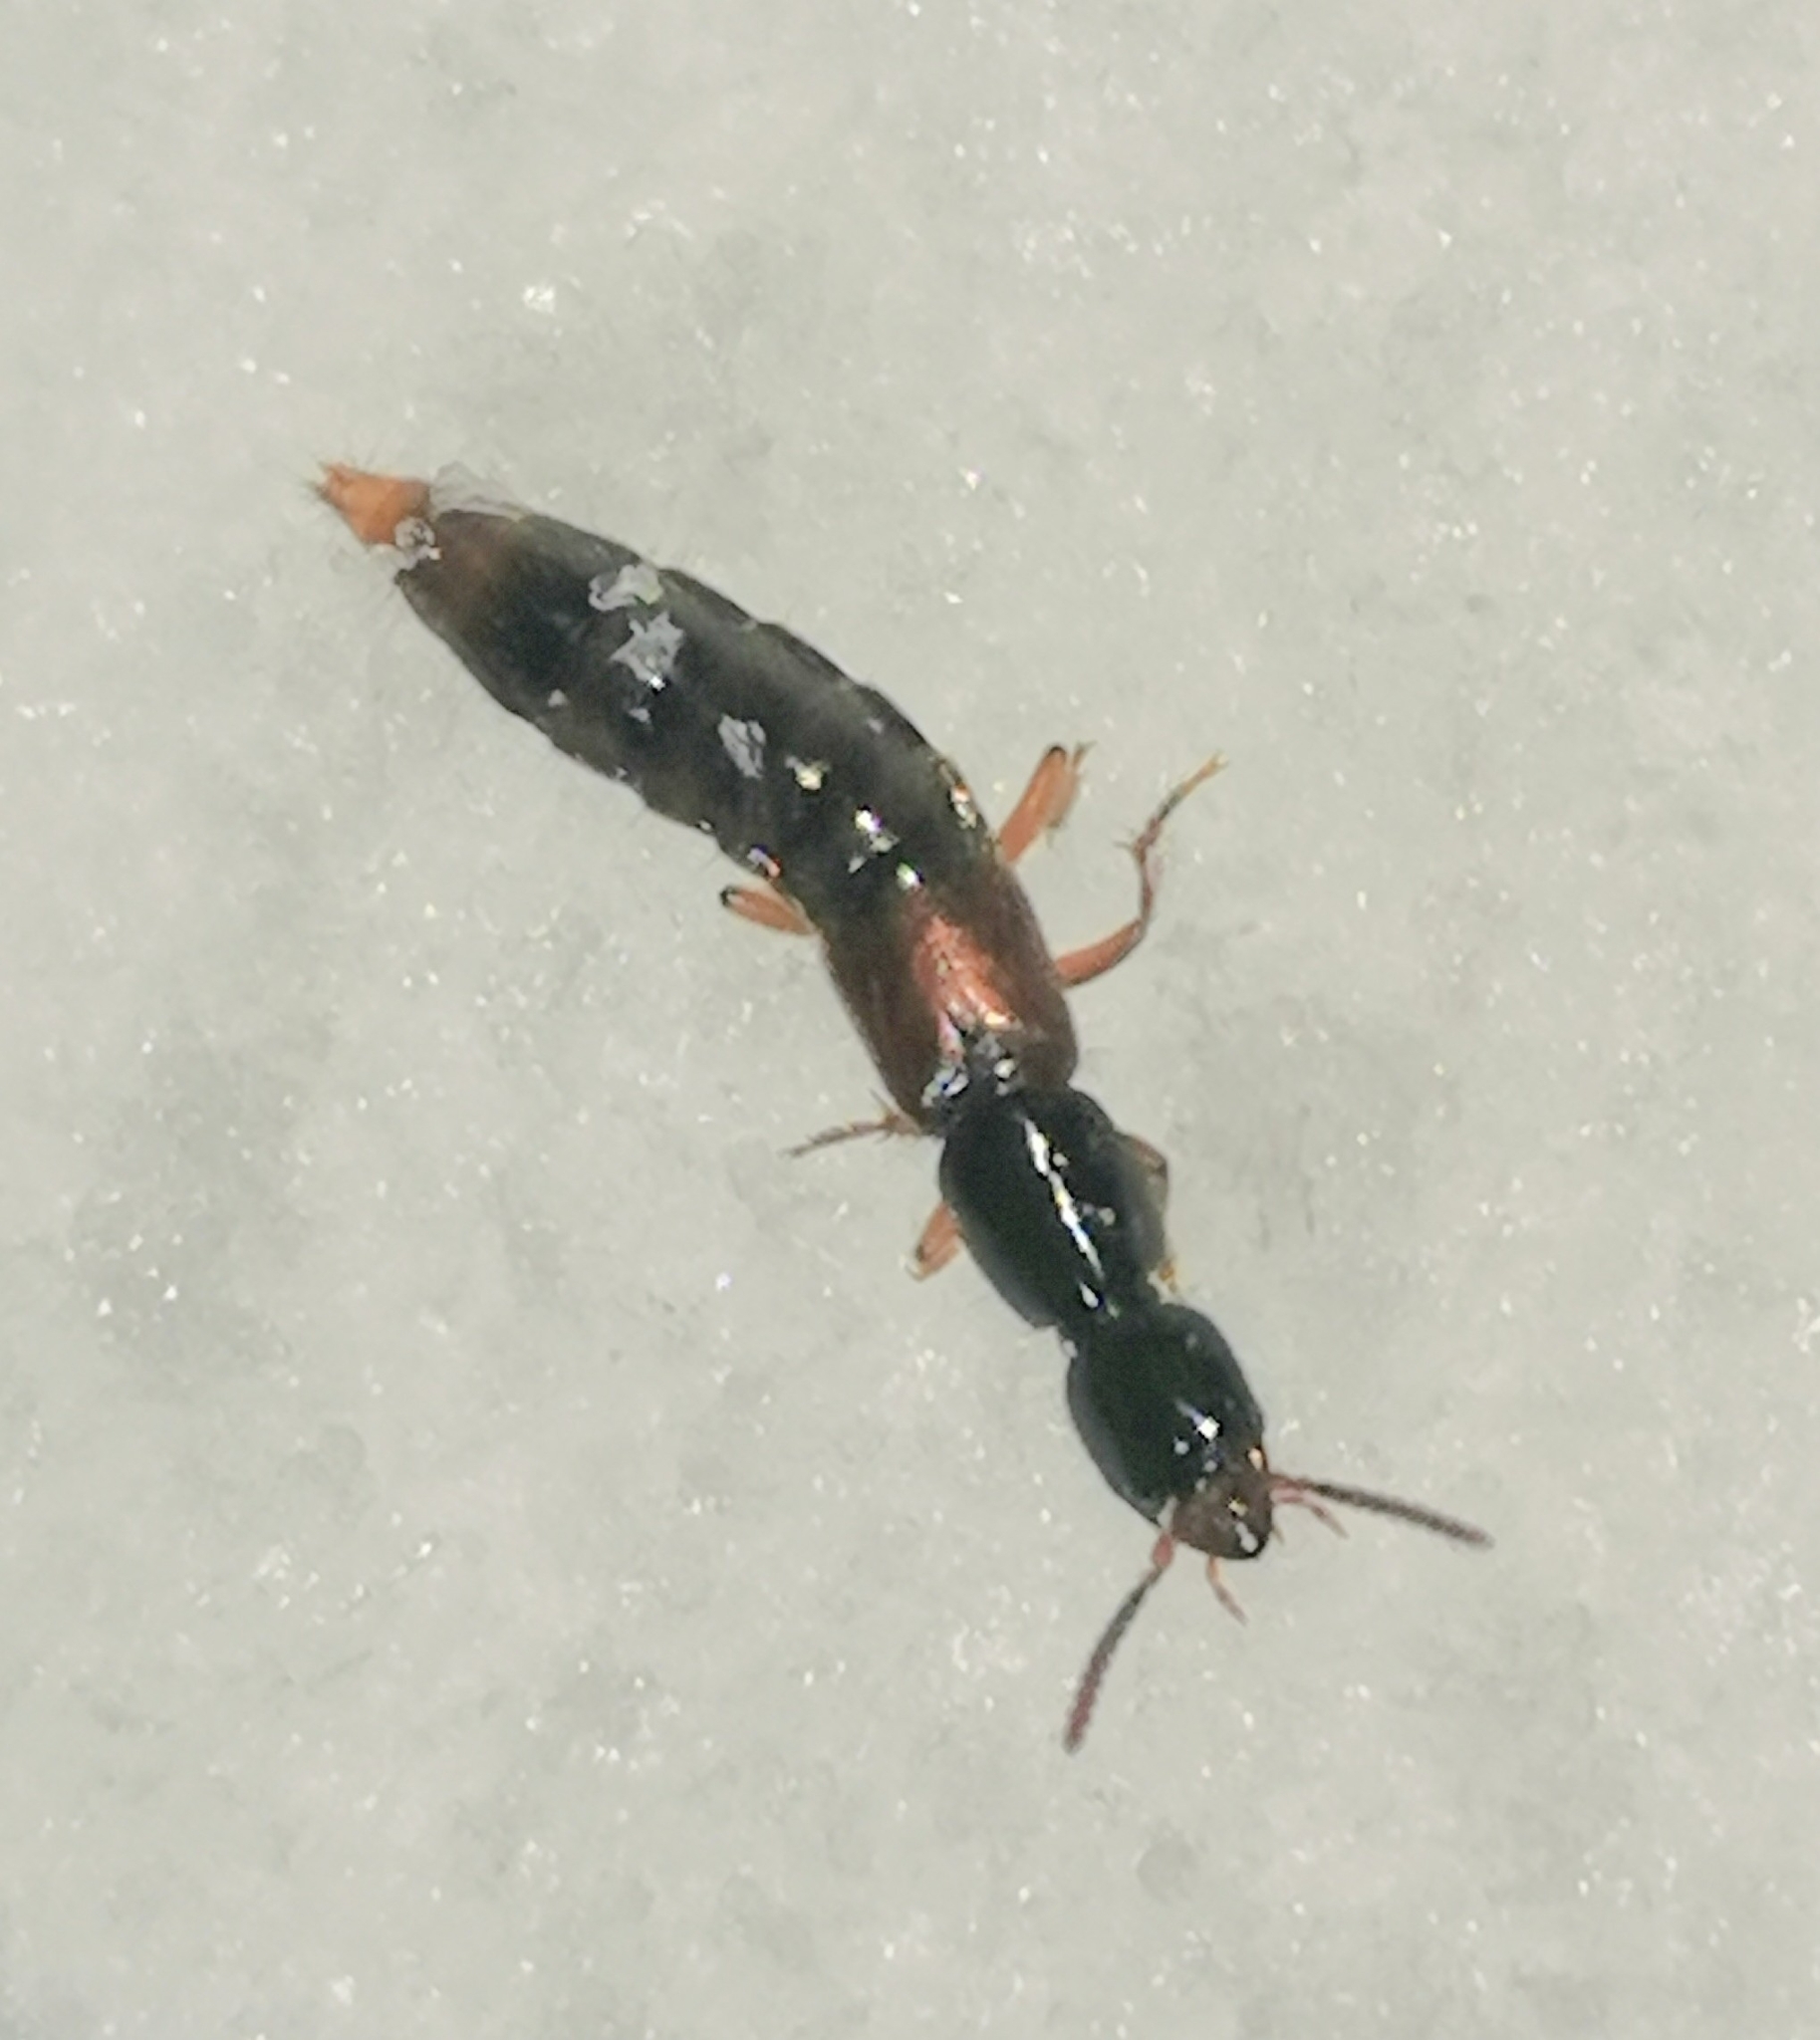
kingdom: Animalia
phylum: Arthropoda
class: Insecta
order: Coleoptera
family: Staphylinidae
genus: Othius
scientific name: Othius punctulatus
